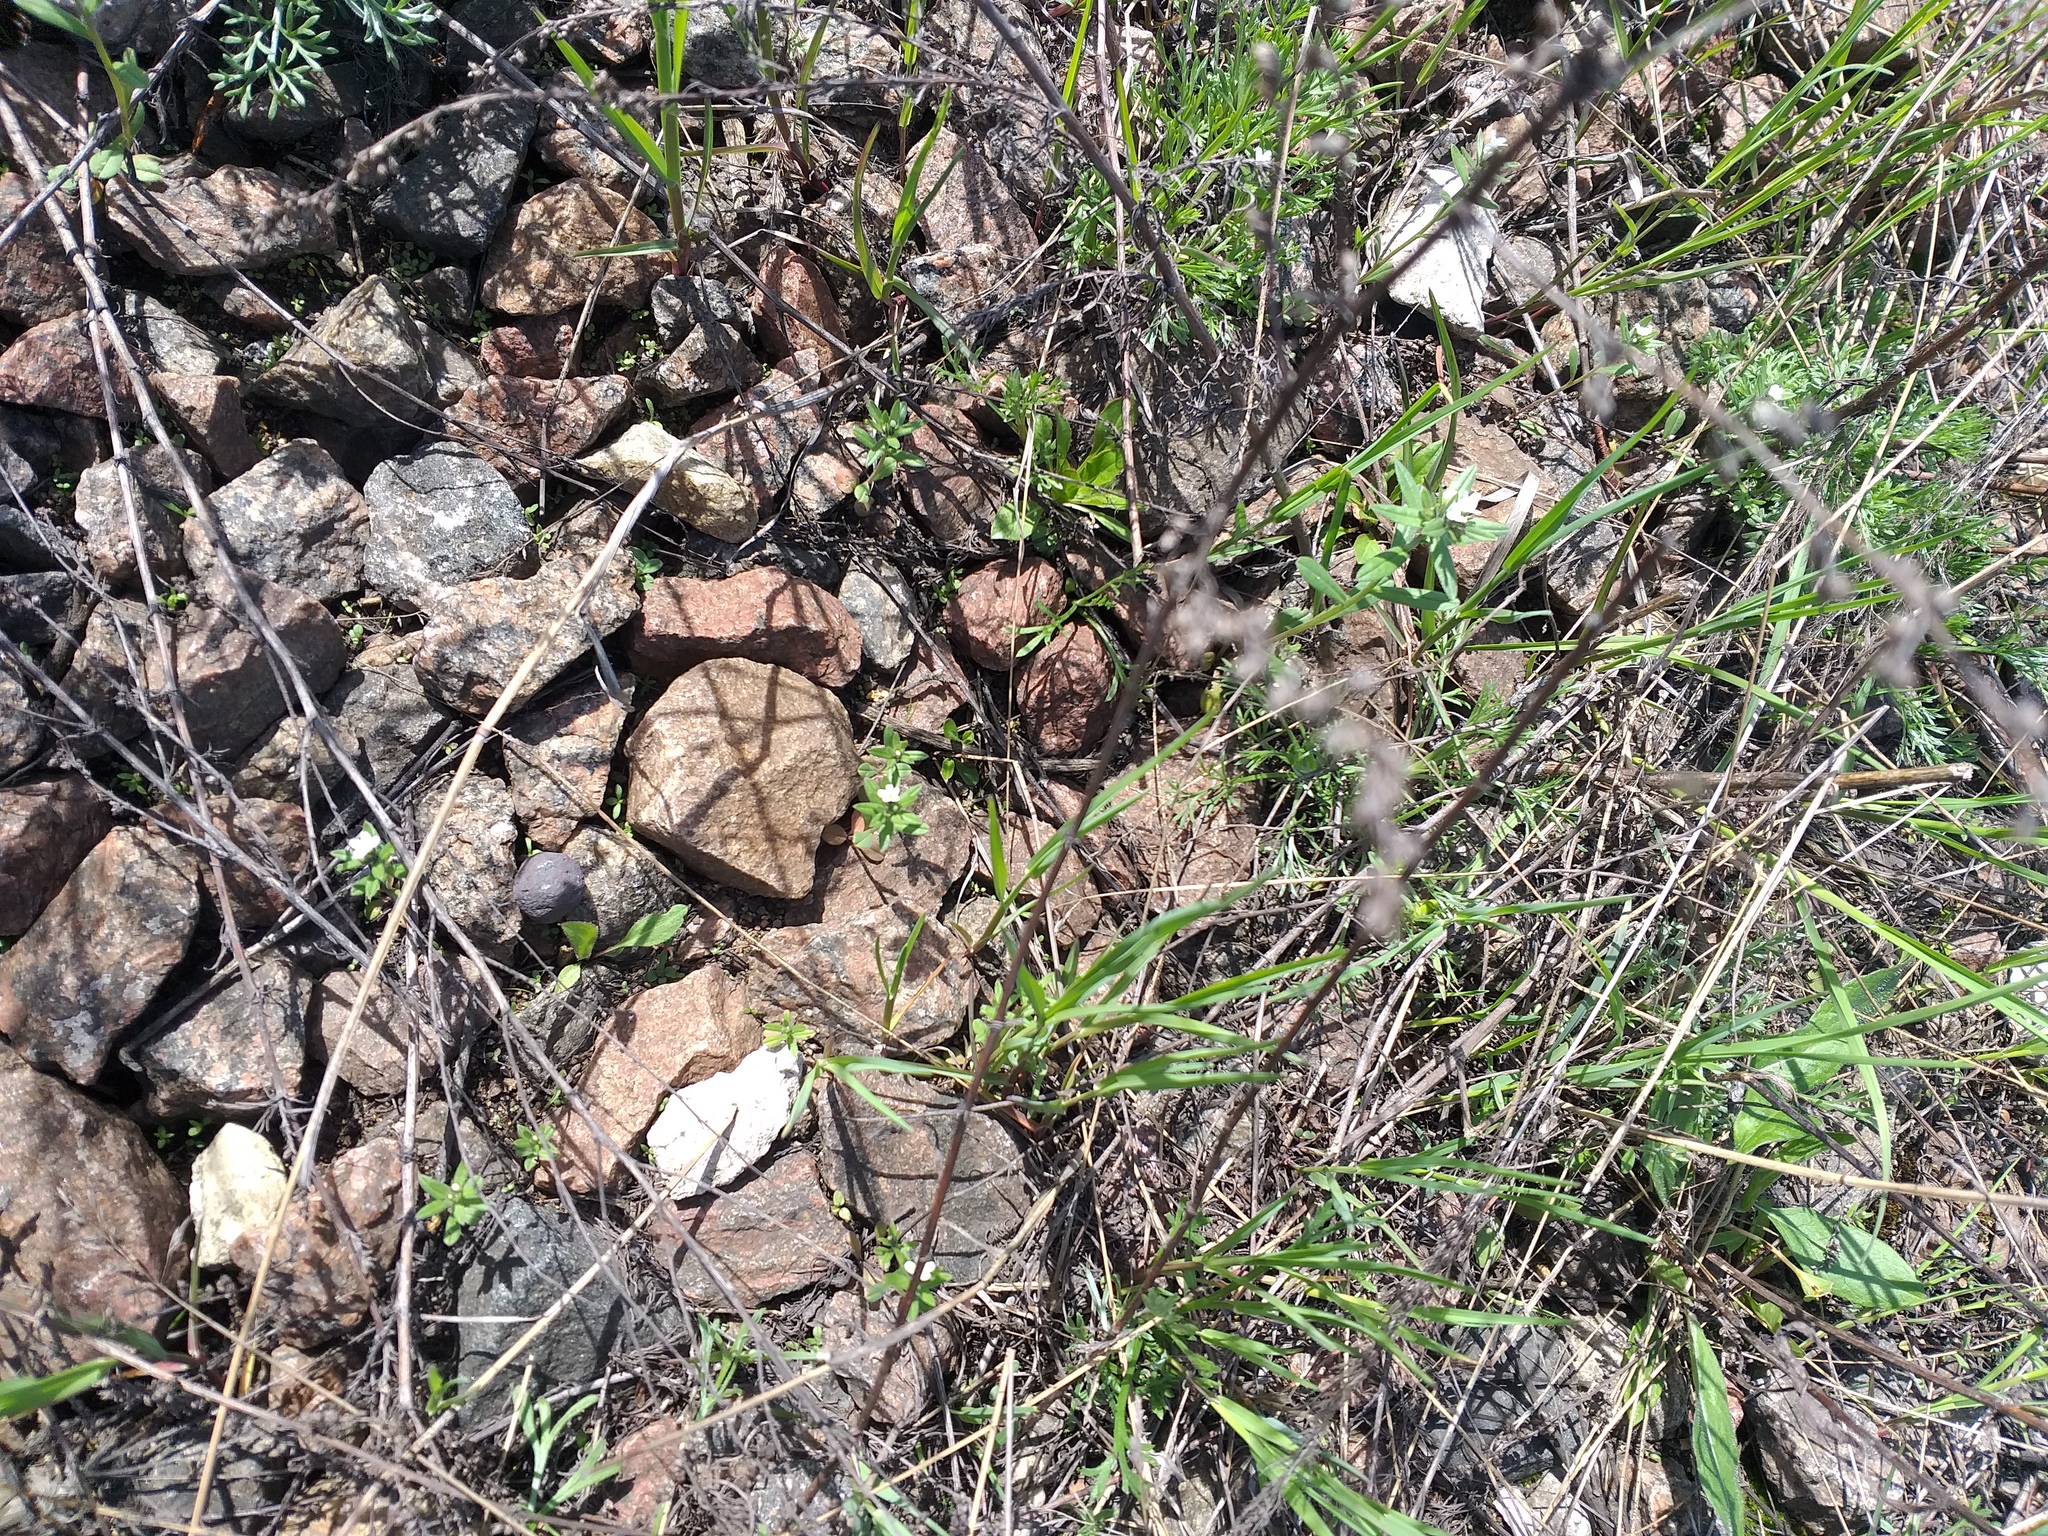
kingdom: Plantae
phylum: Tracheophyta
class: Magnoliopsida
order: Boraginales
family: Boraginaceae
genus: Buglossoides
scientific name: Buglossoides arvensis
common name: Corn gromwell
